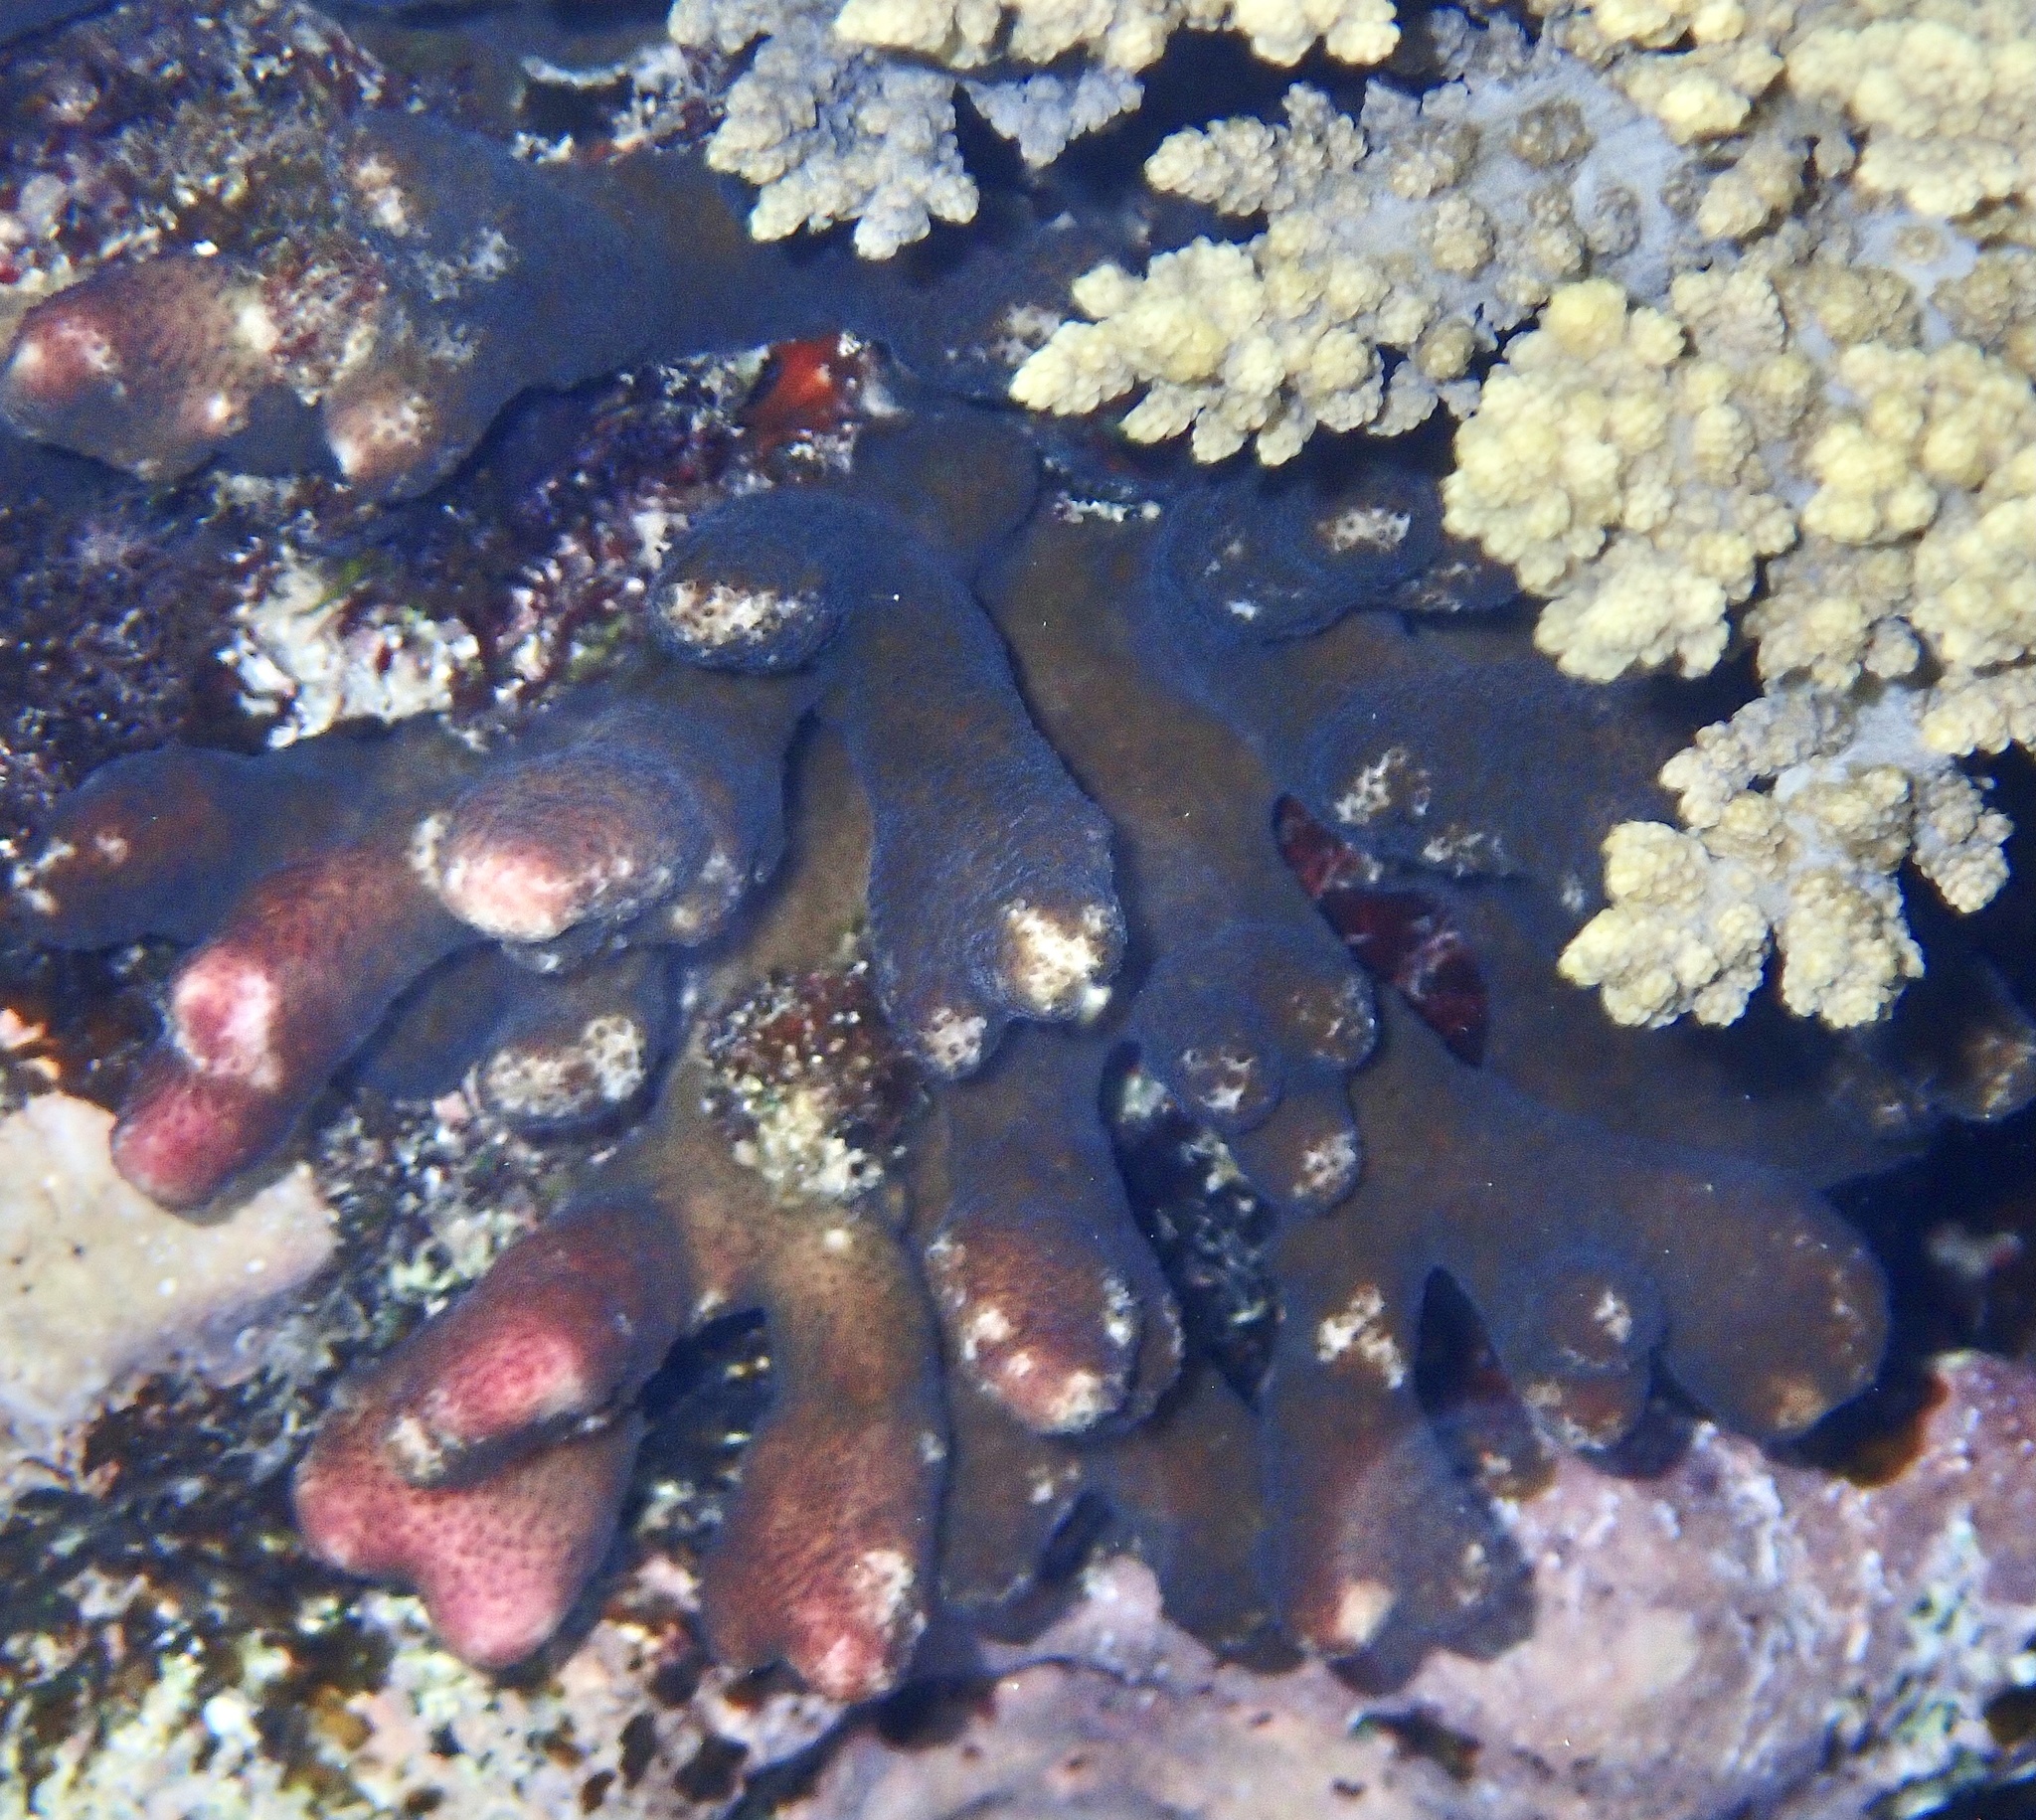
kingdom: Animalia
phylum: Cnidaria
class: Anthozoa
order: Scleractinia
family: Pocilloporidae
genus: Stylophora
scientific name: Stylophora
